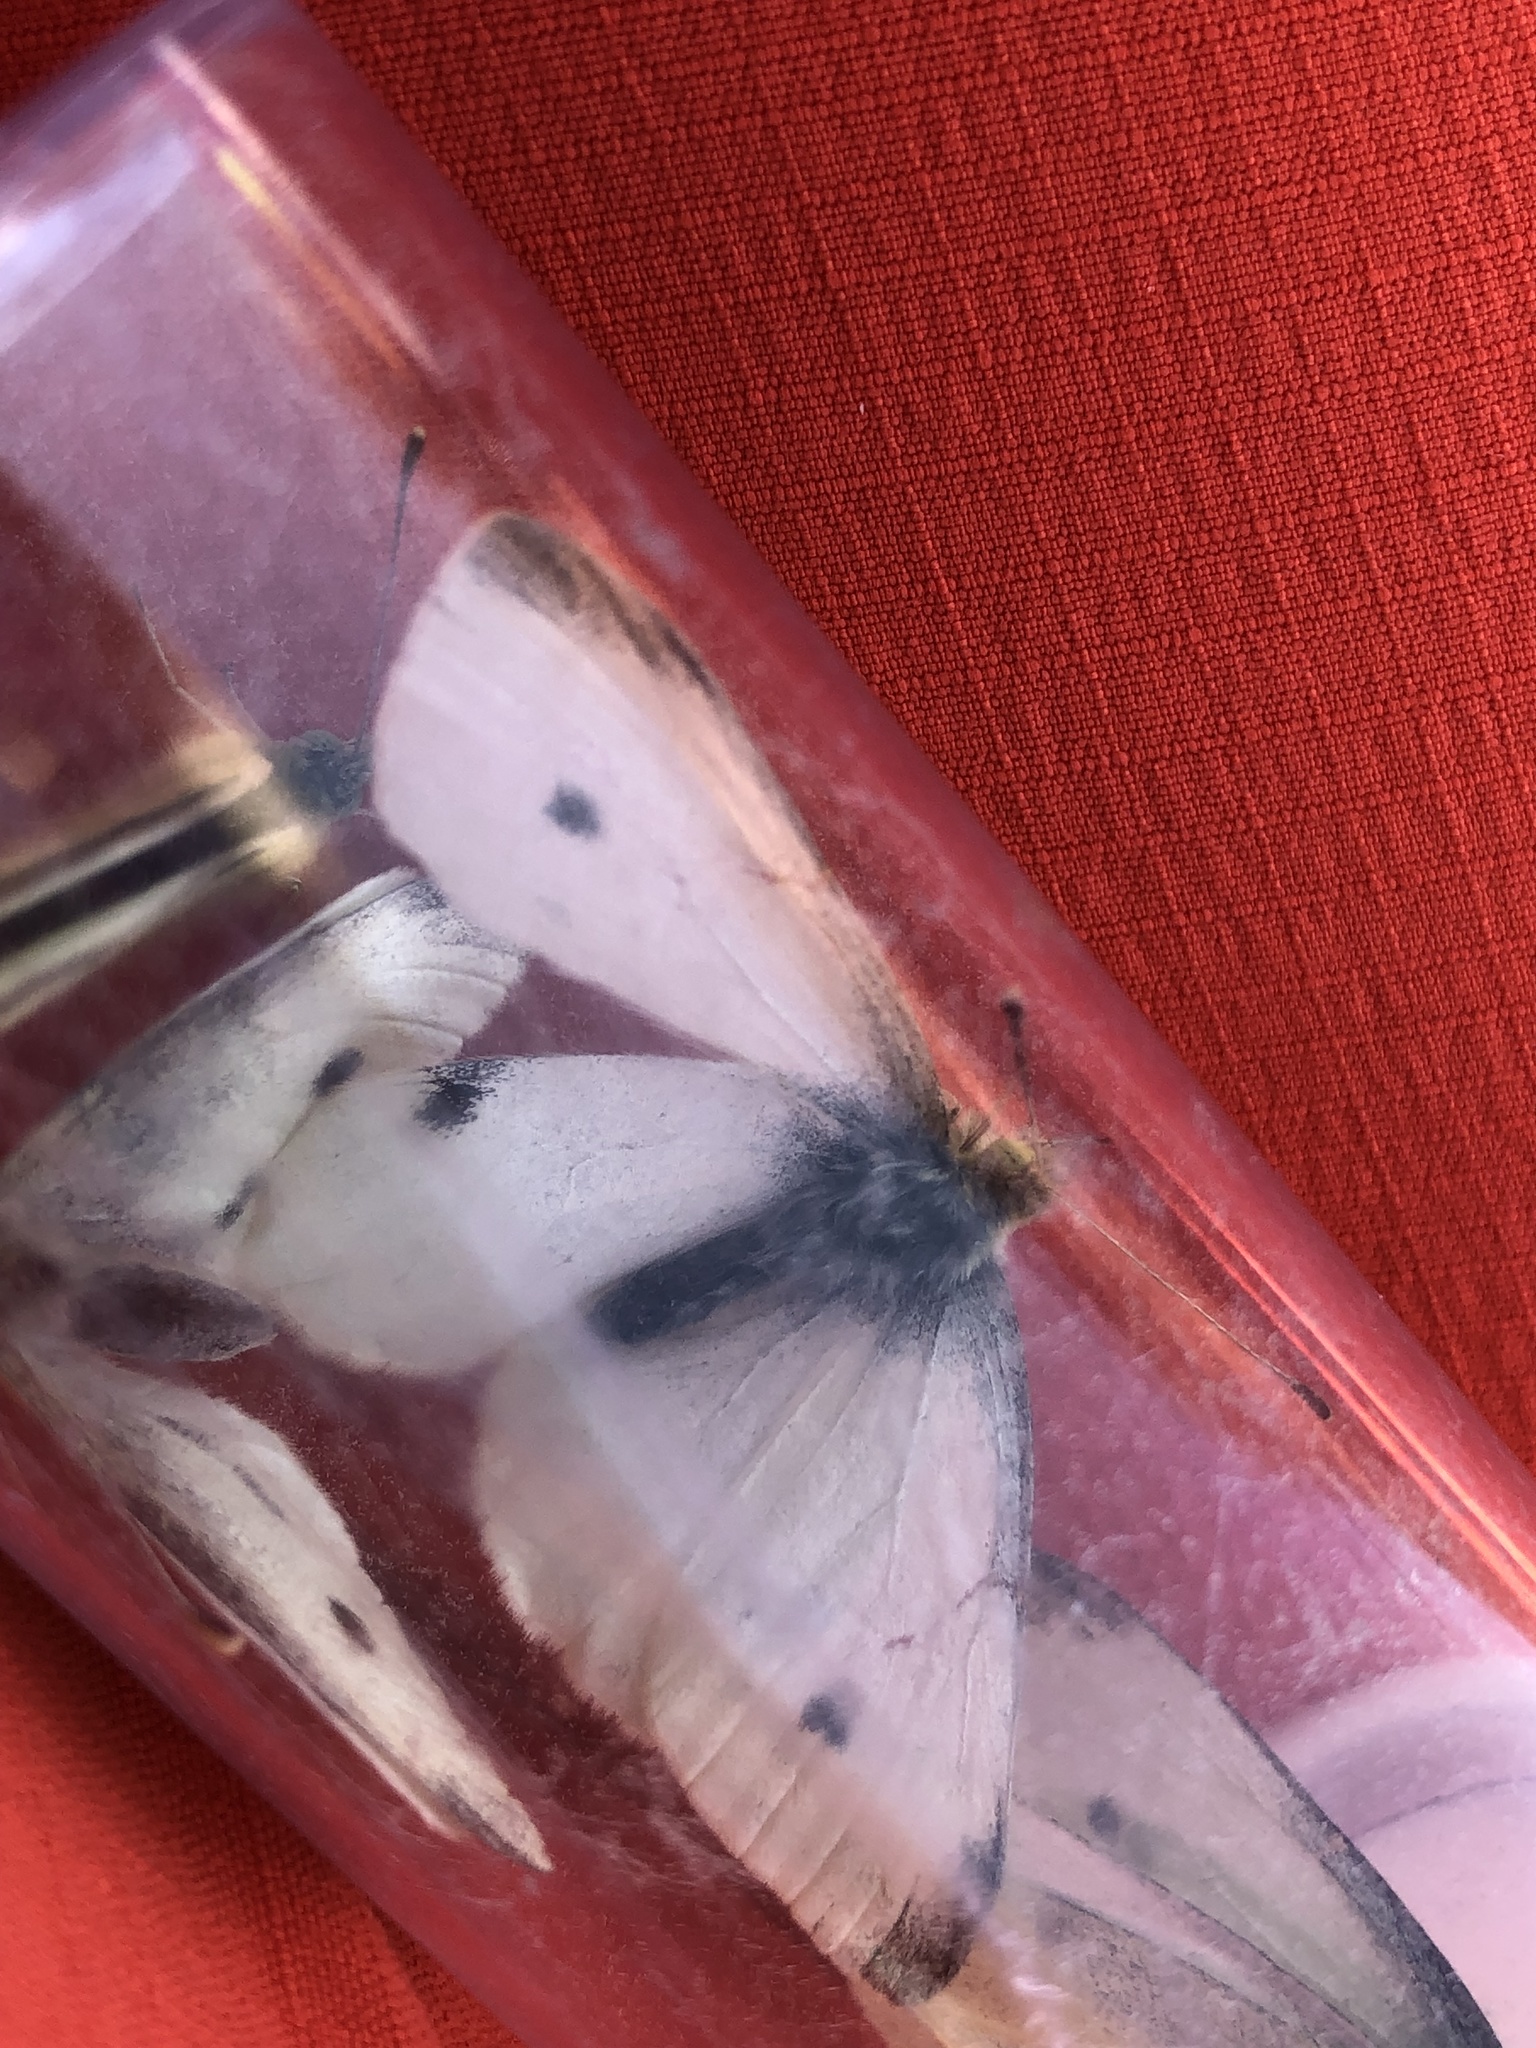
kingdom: Animalia
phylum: Arthropoda
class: Insecta
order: Lepidoptera
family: Pieridae
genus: Pieris
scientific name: Pieris rapae
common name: Small white
